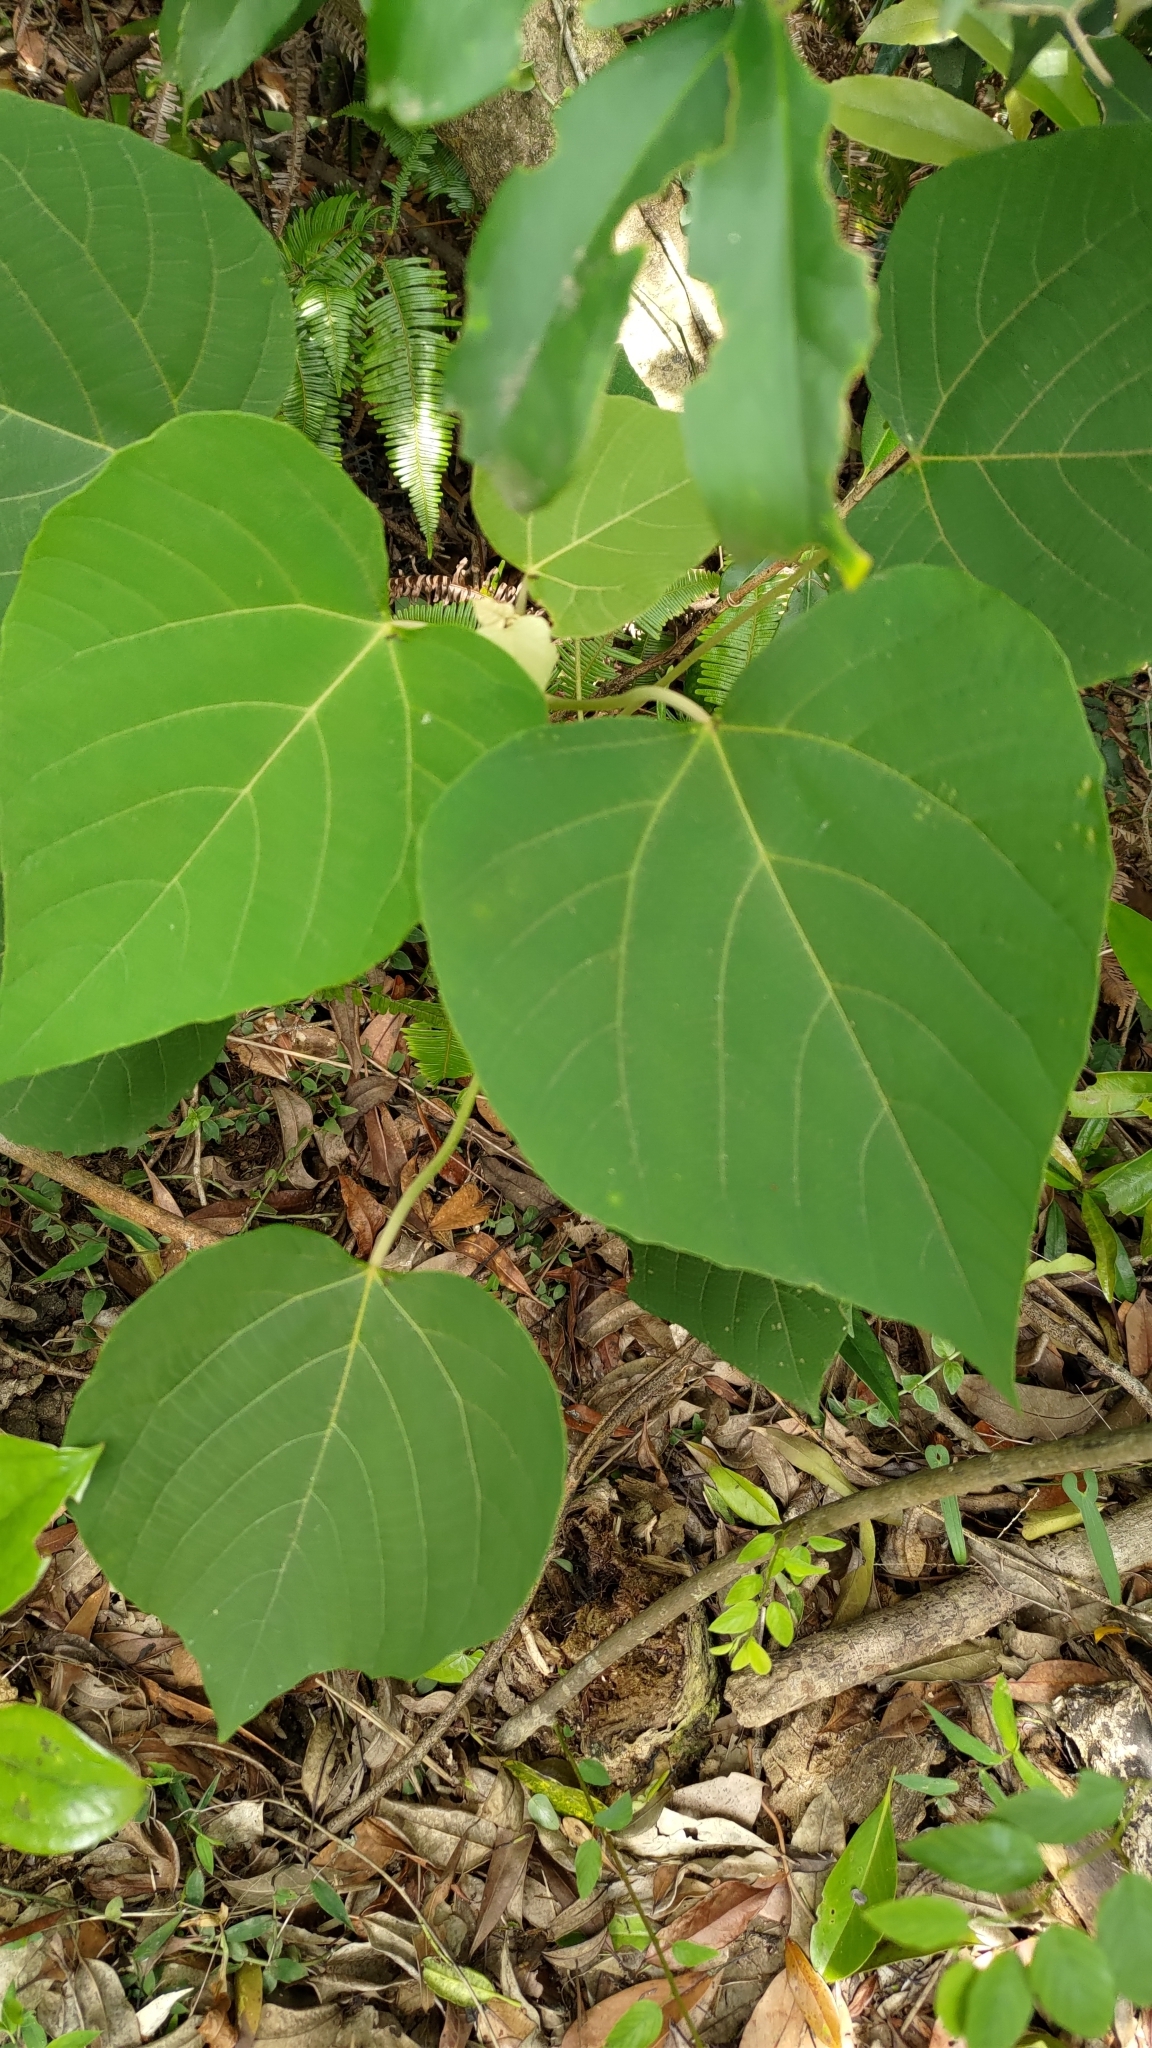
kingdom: Plantae
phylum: Tracheophyta
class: Magnoliopsida
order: Malpighiales
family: Euphorbiaceae
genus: Mallotus
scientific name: Mallotus japonicus
